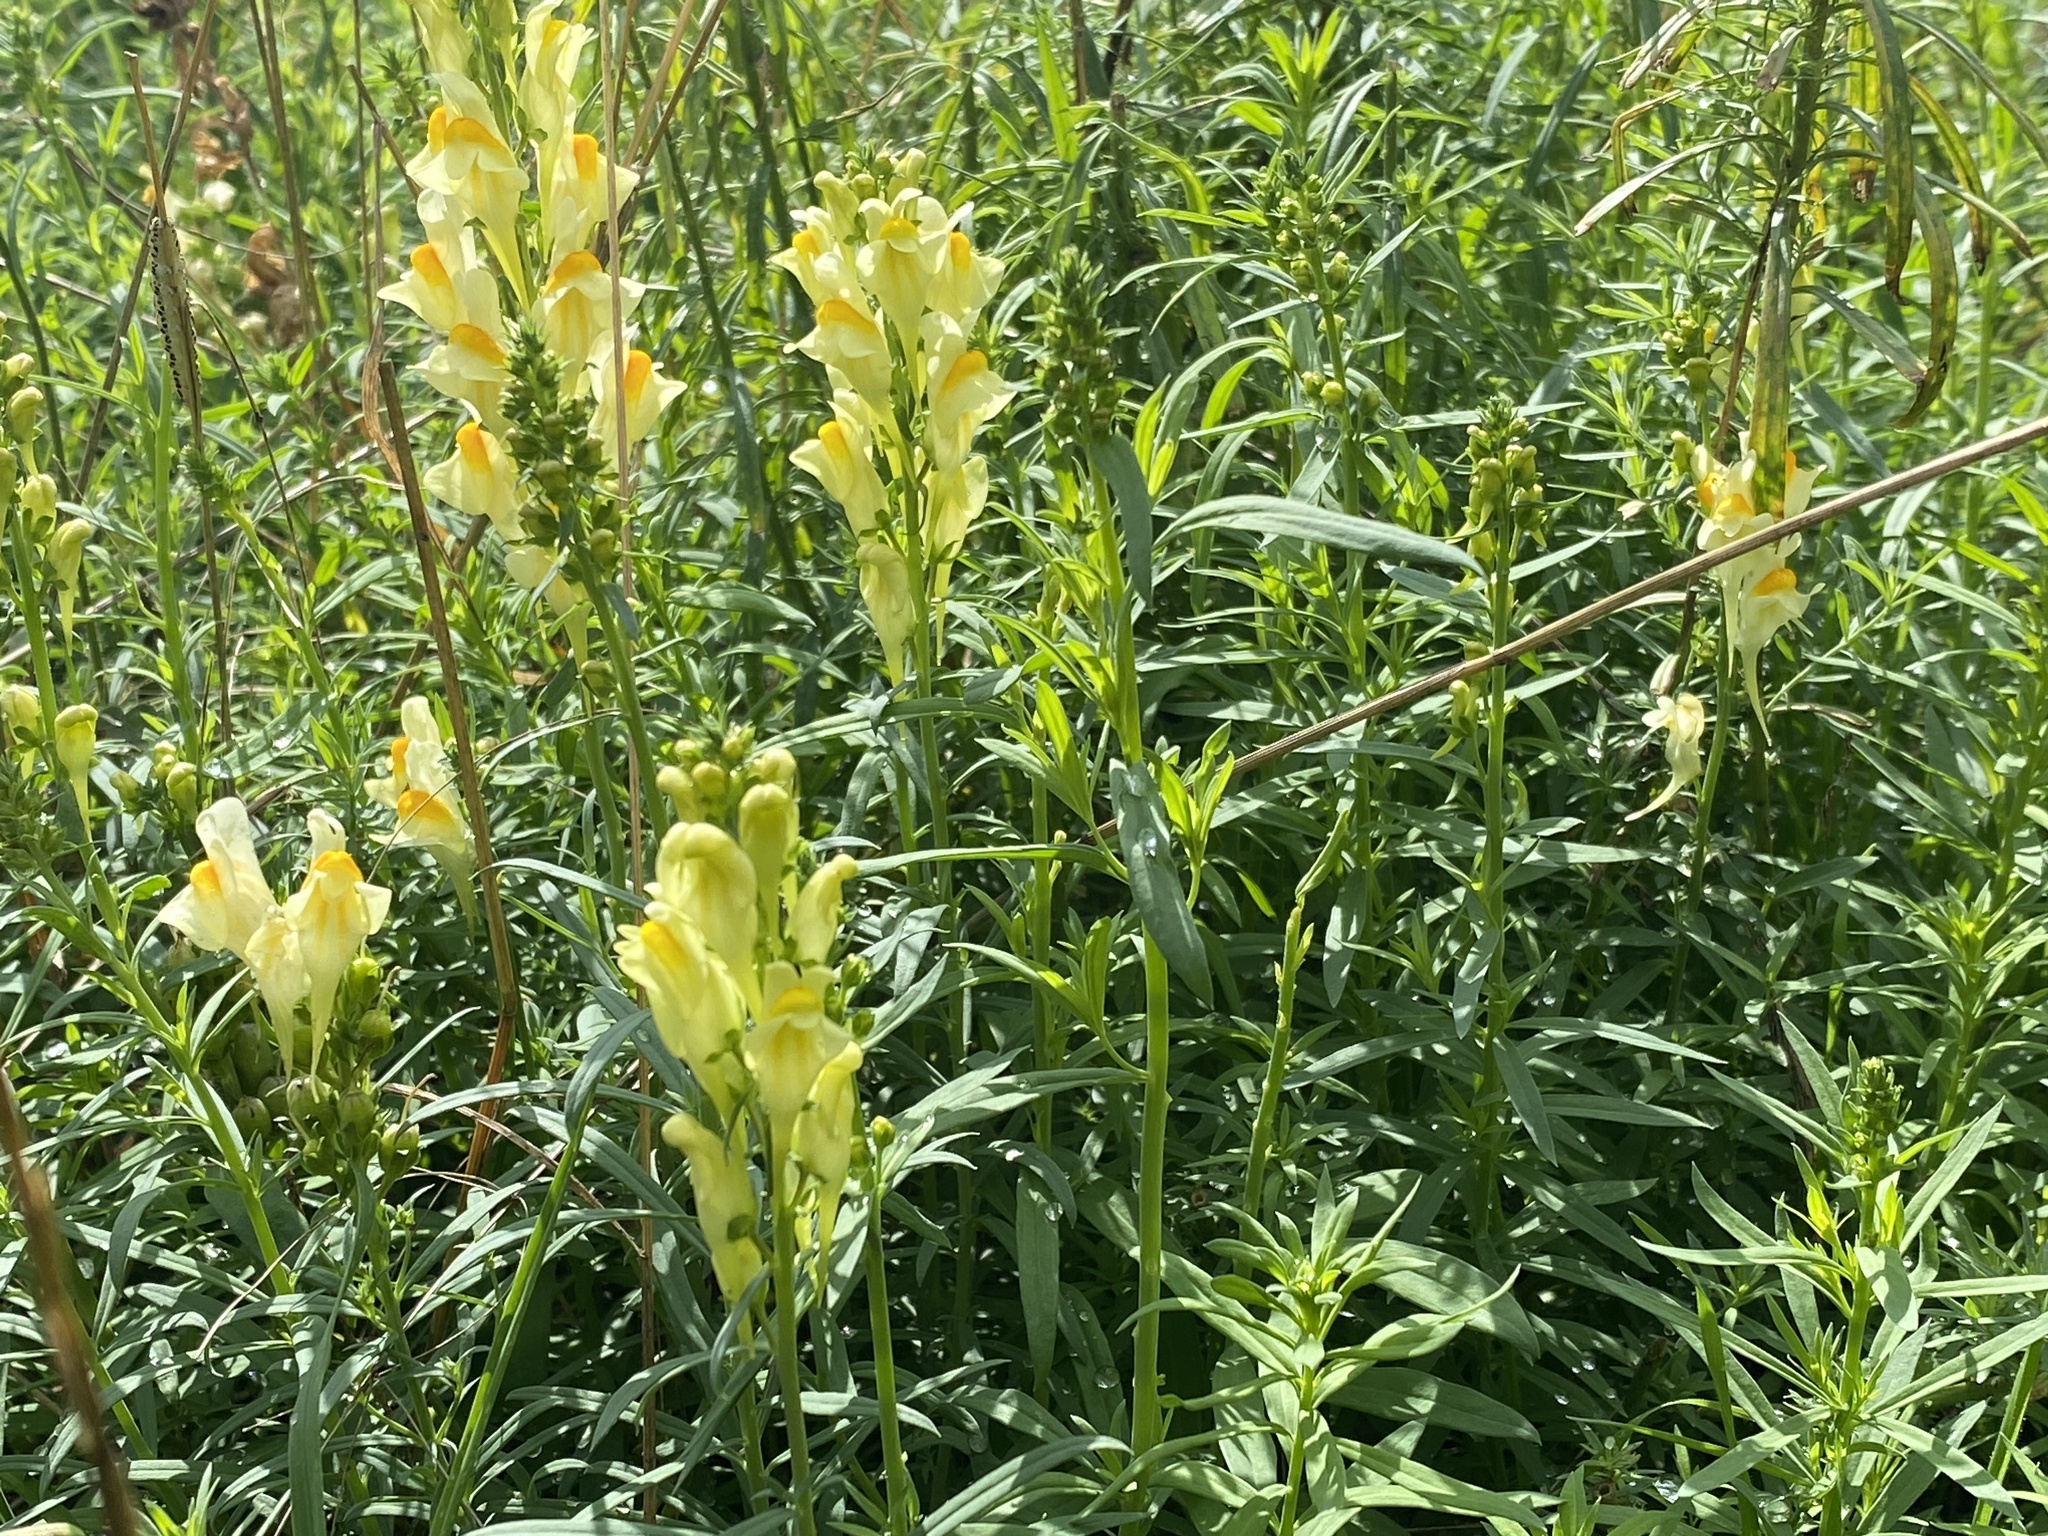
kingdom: Plantae
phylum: Tracheophyta
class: Magnoliopsida
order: Lamiales
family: Plantaginaceae
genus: Linaria
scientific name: Linaria vulgaris
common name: Butter and eggs
